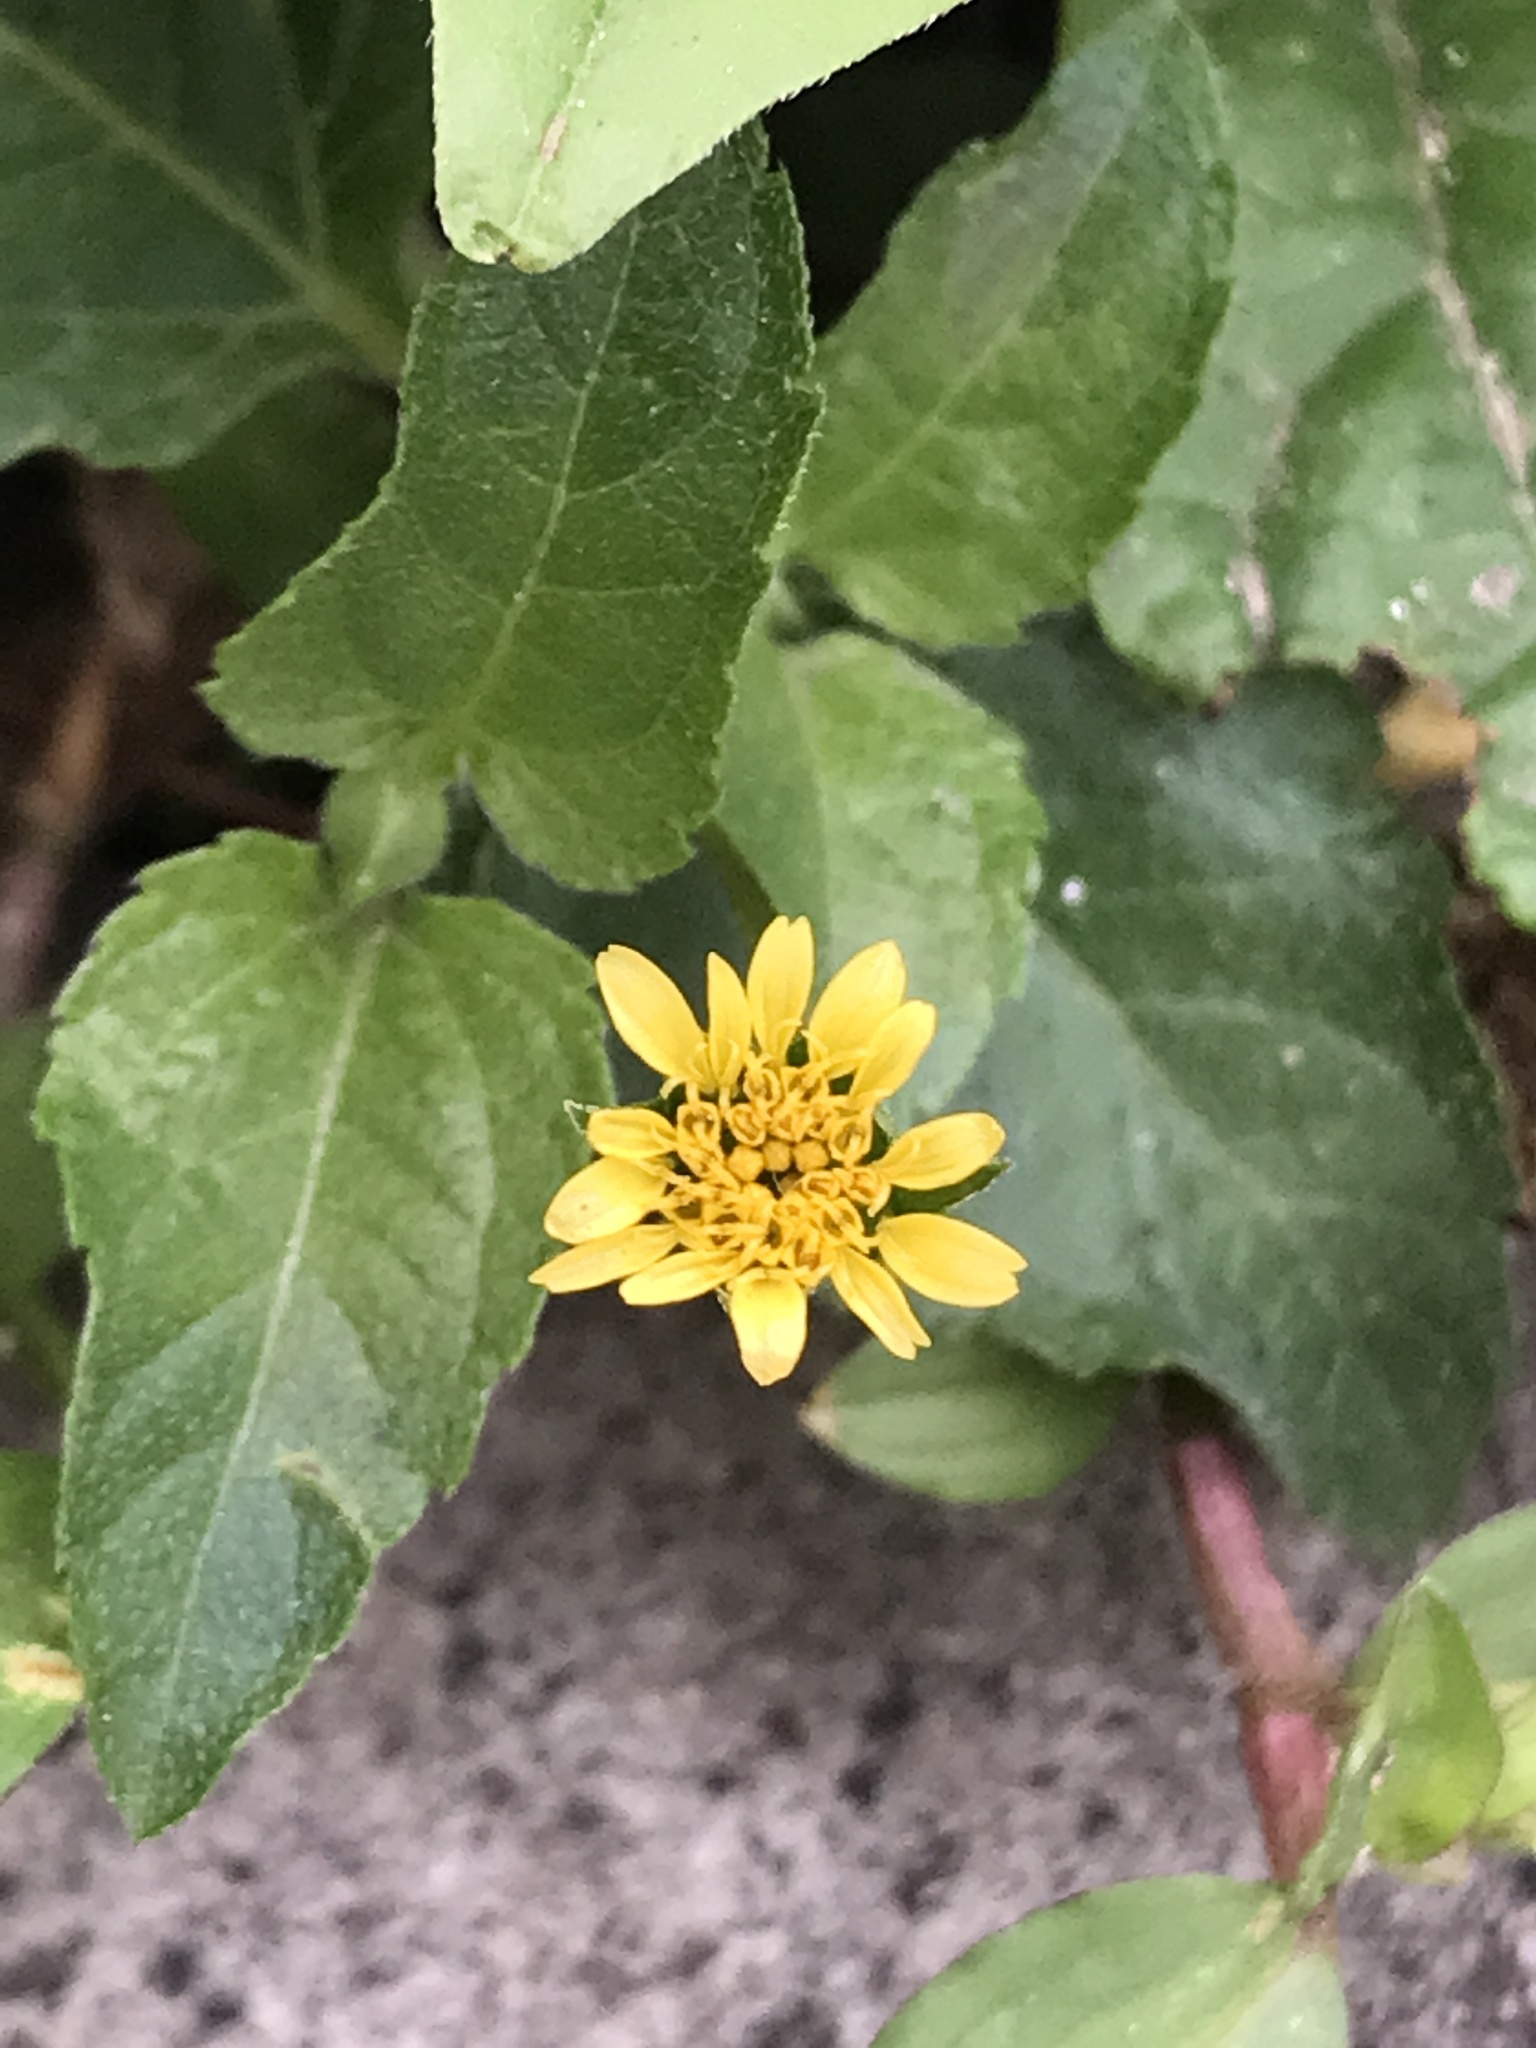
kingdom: Plantae
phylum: Tracheophyta
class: Magnoliopsida
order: Asterales
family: Asteraceae
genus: Calyptocarpus
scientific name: Calyptocarpus vialis
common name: Straggler daisy
